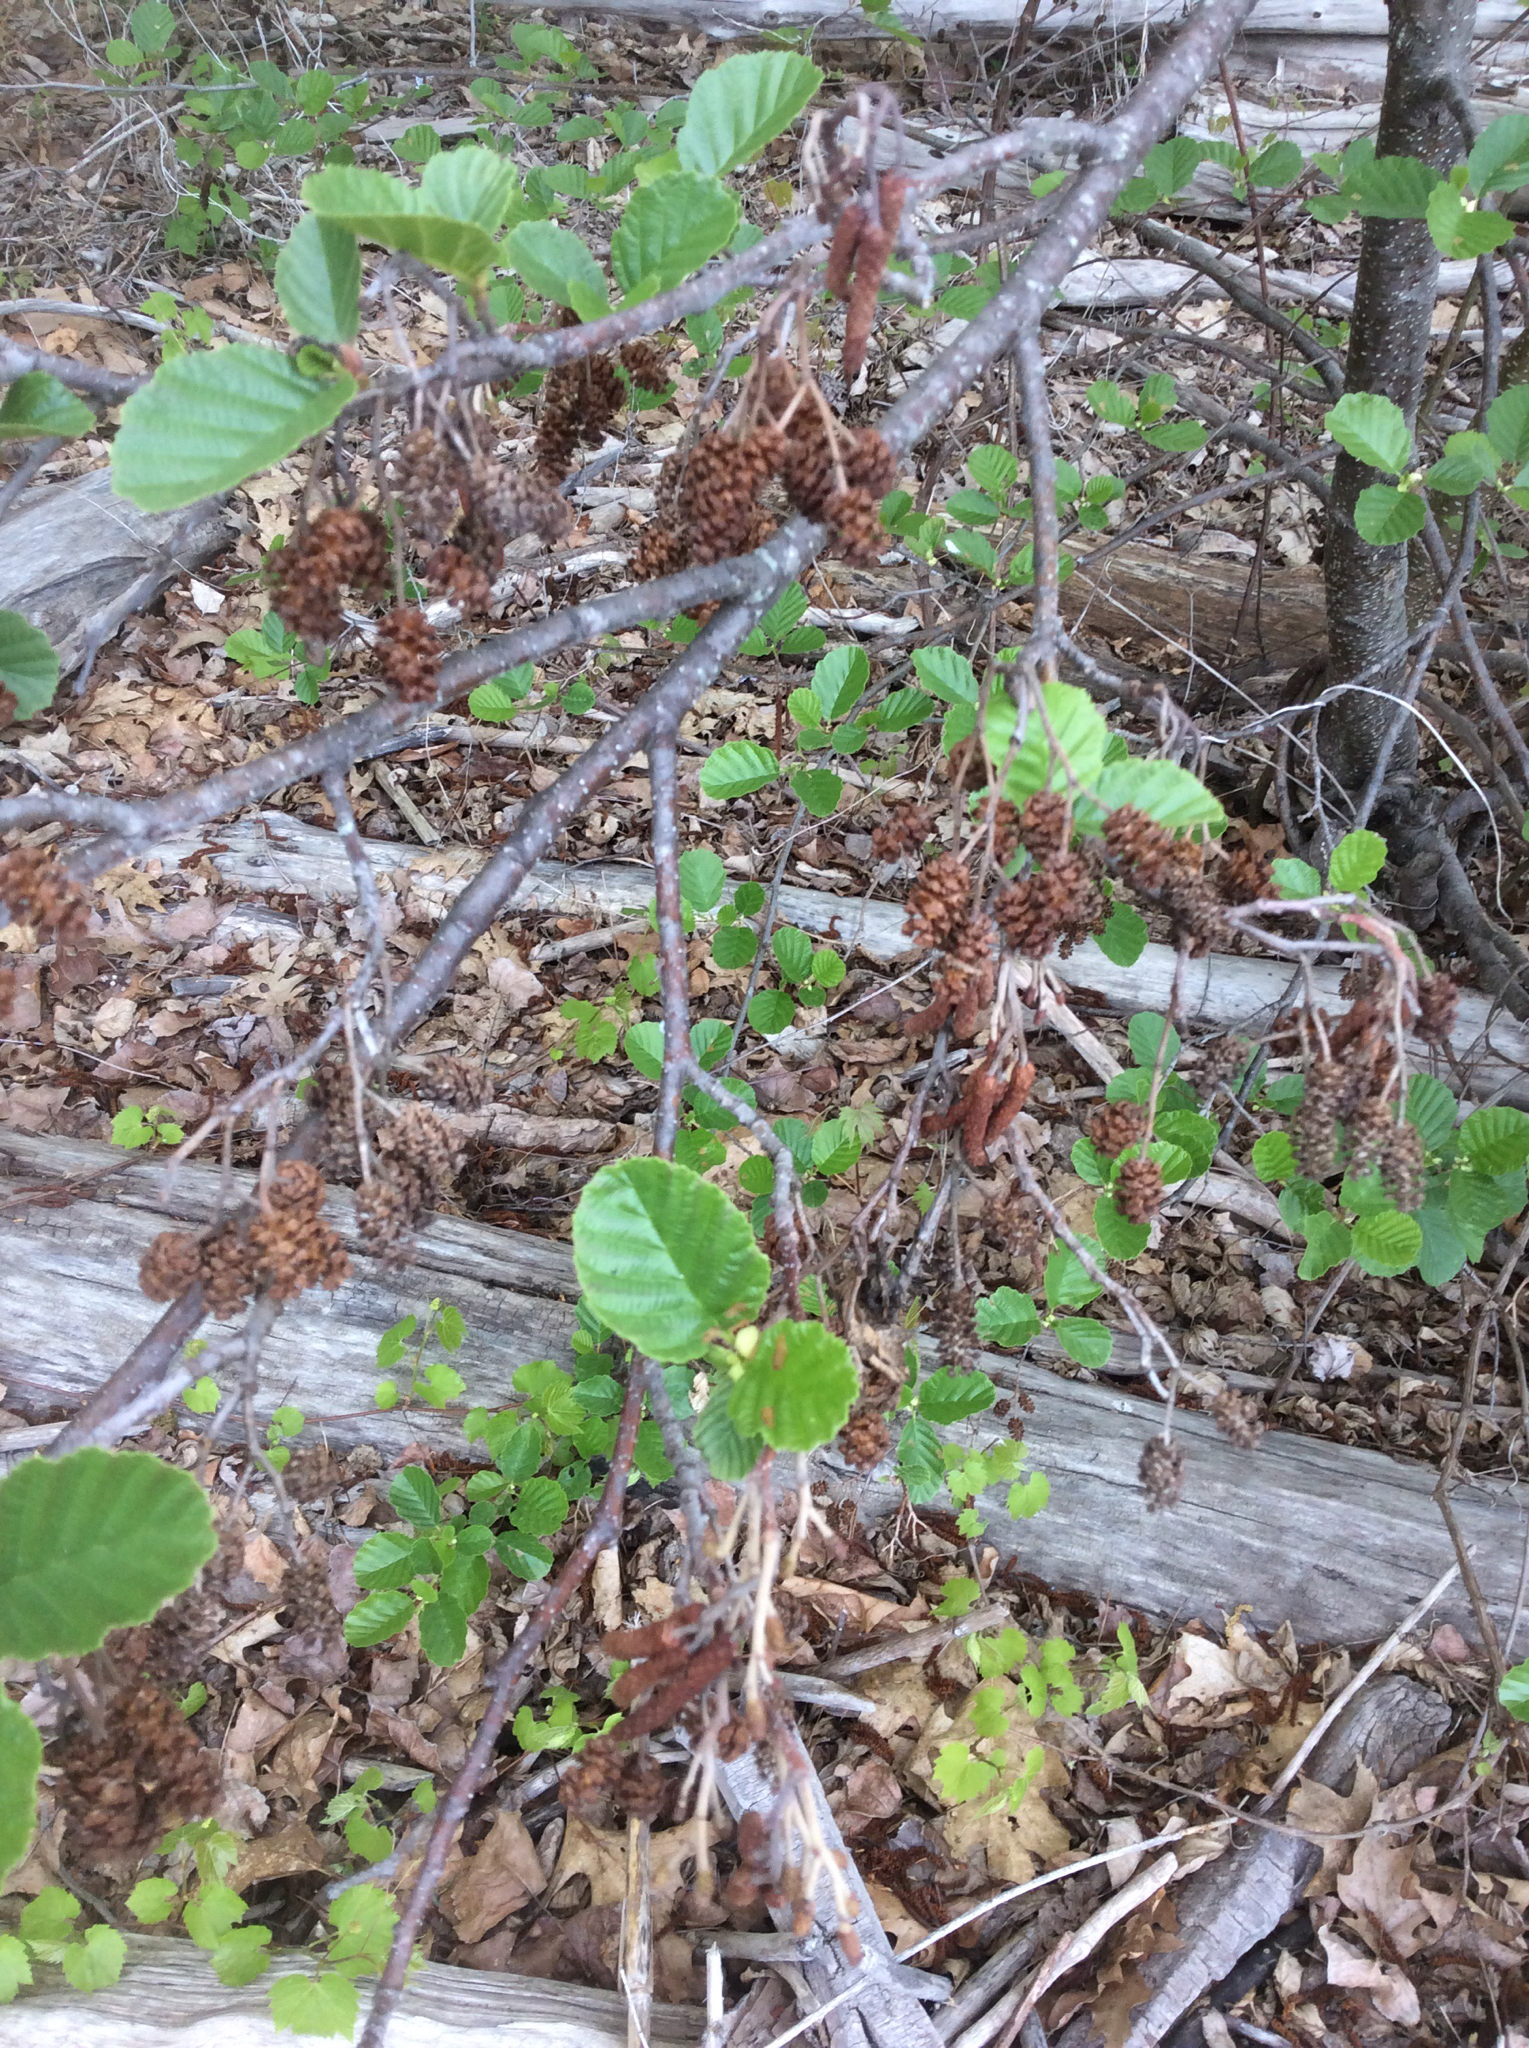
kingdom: Plantae
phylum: Tracheophyta
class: Magnoliopsida
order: Fagales
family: Betulaceae
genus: Alnus
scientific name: Alnus glutinosa
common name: Black alder
